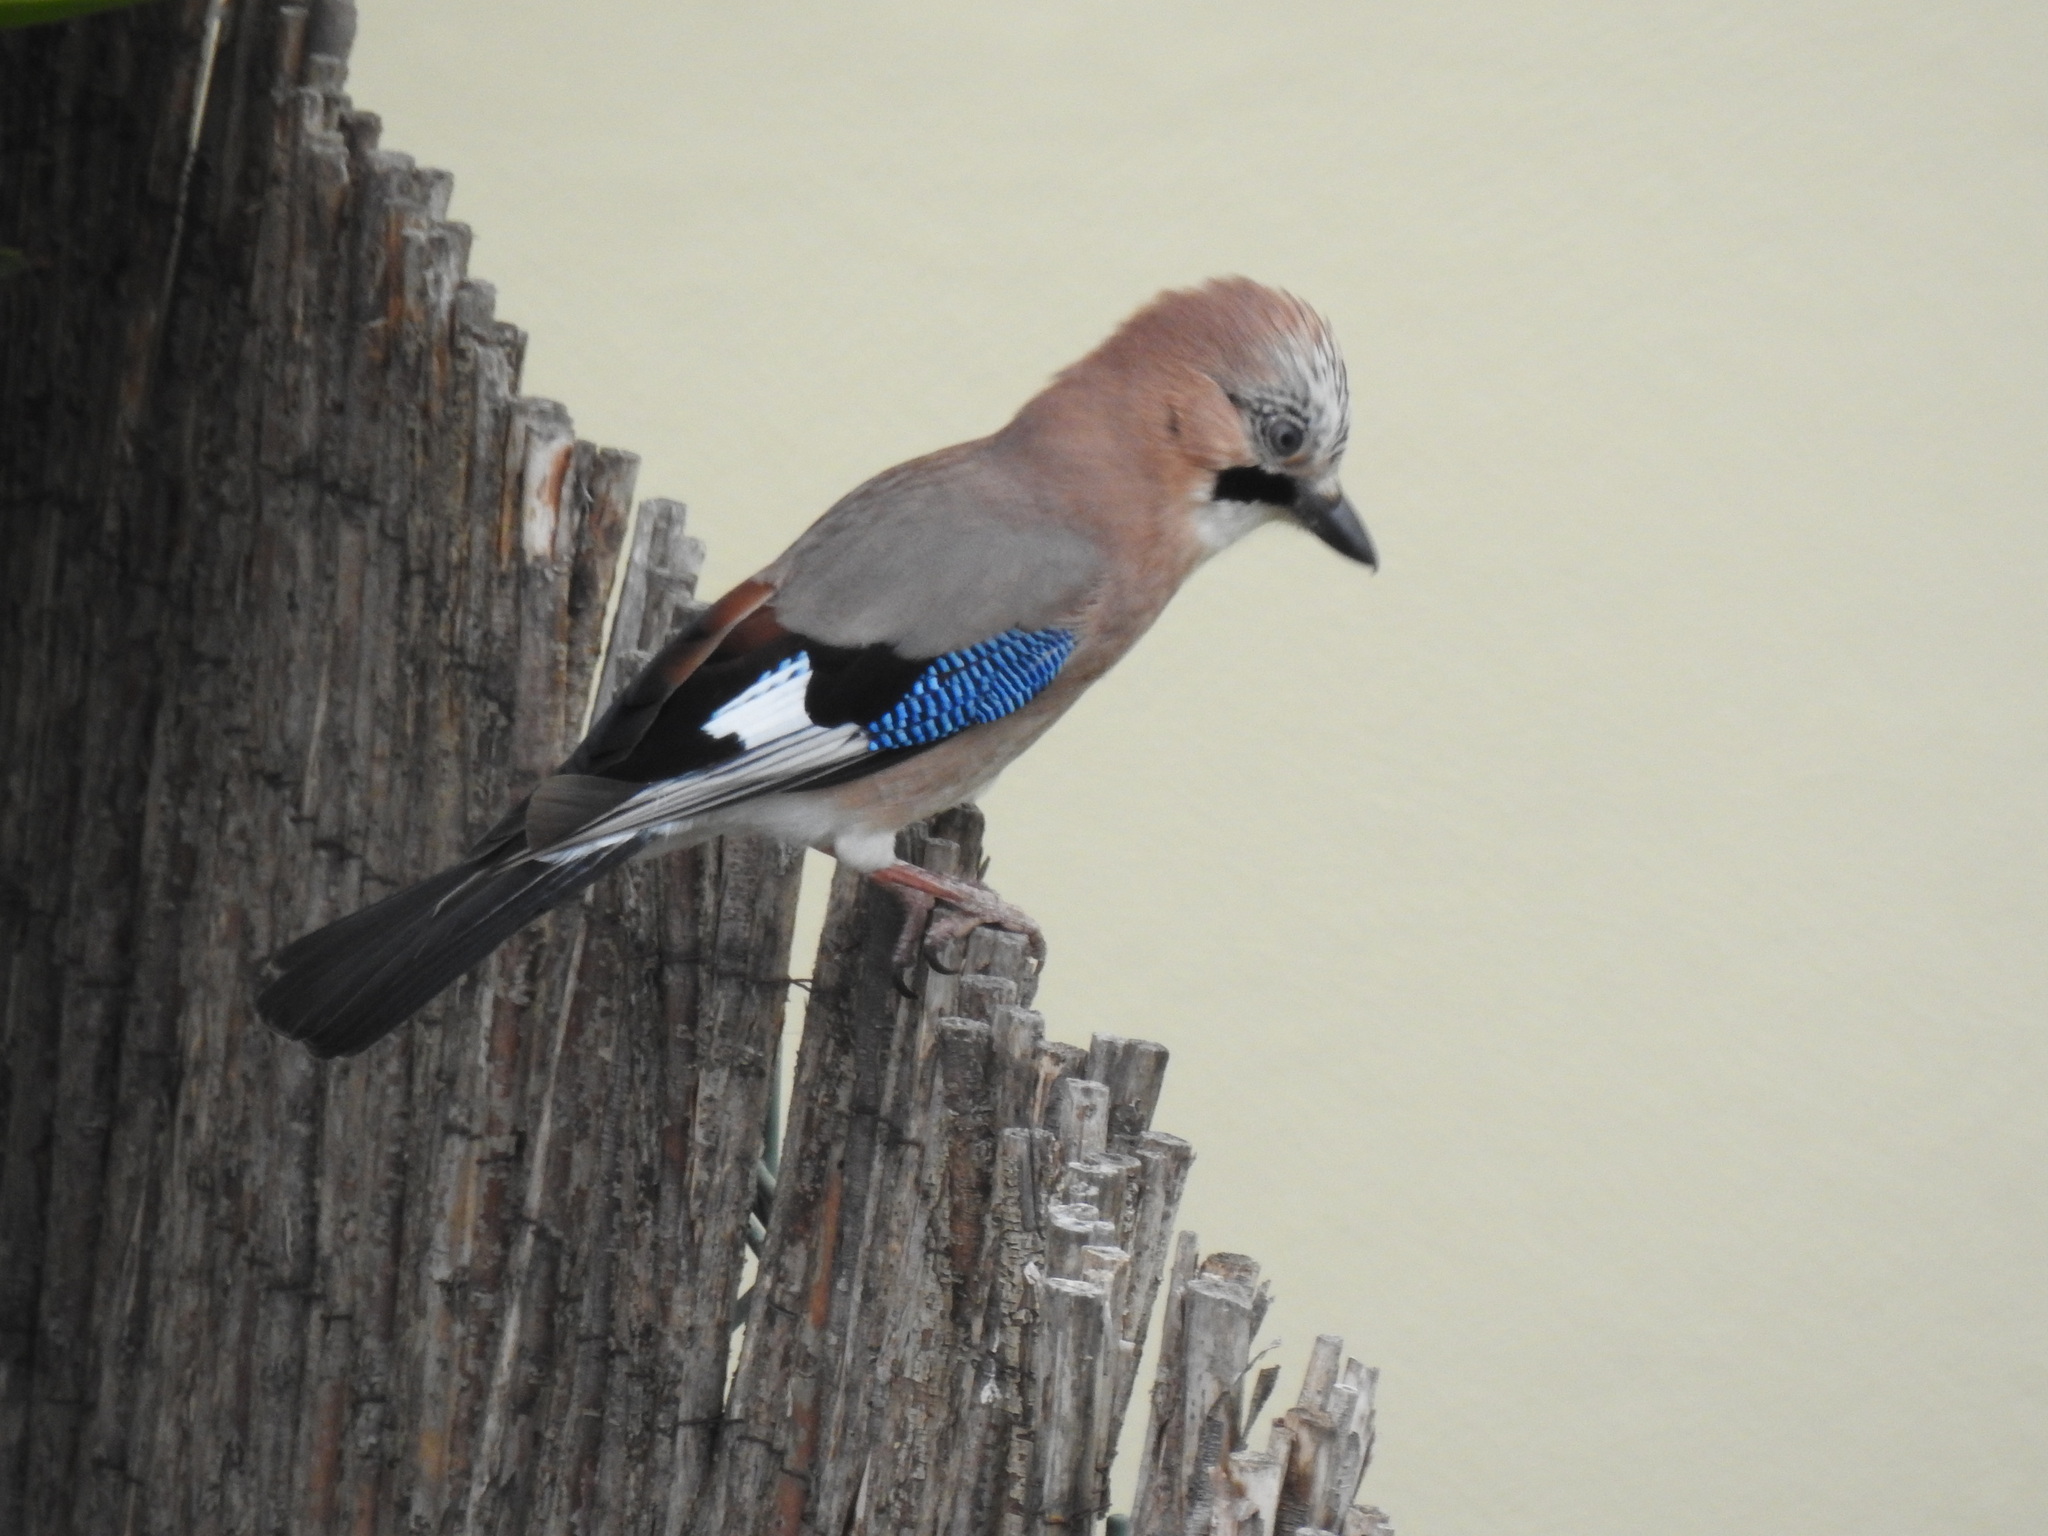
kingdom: Animalia
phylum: Chordata
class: Aves
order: Passeriformes
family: Corvidae
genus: Garrulus
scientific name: Garrulus glandarius
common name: Eurasian jay
